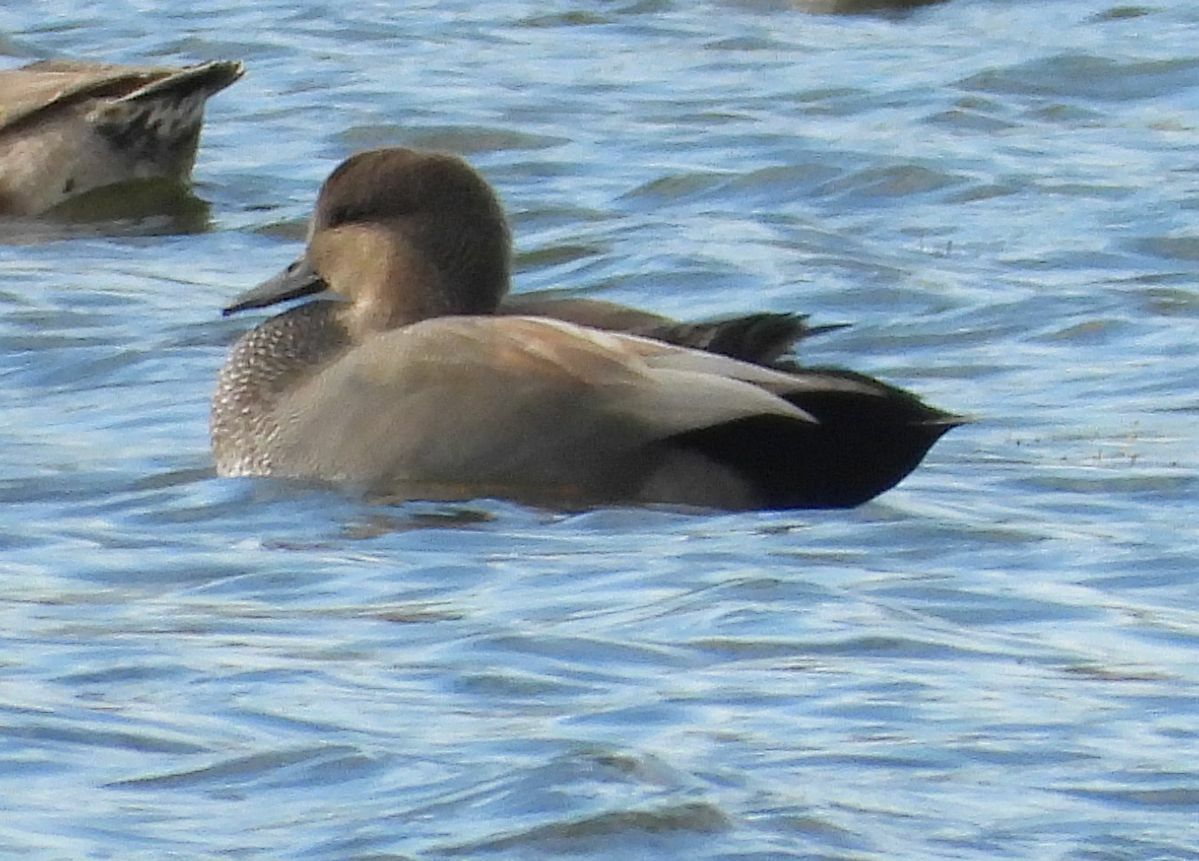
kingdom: Animalia
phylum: Chordata
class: Aves
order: Anseriformes
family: Anatidae
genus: Mareca
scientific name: Mareca strepera
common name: Gadwall
